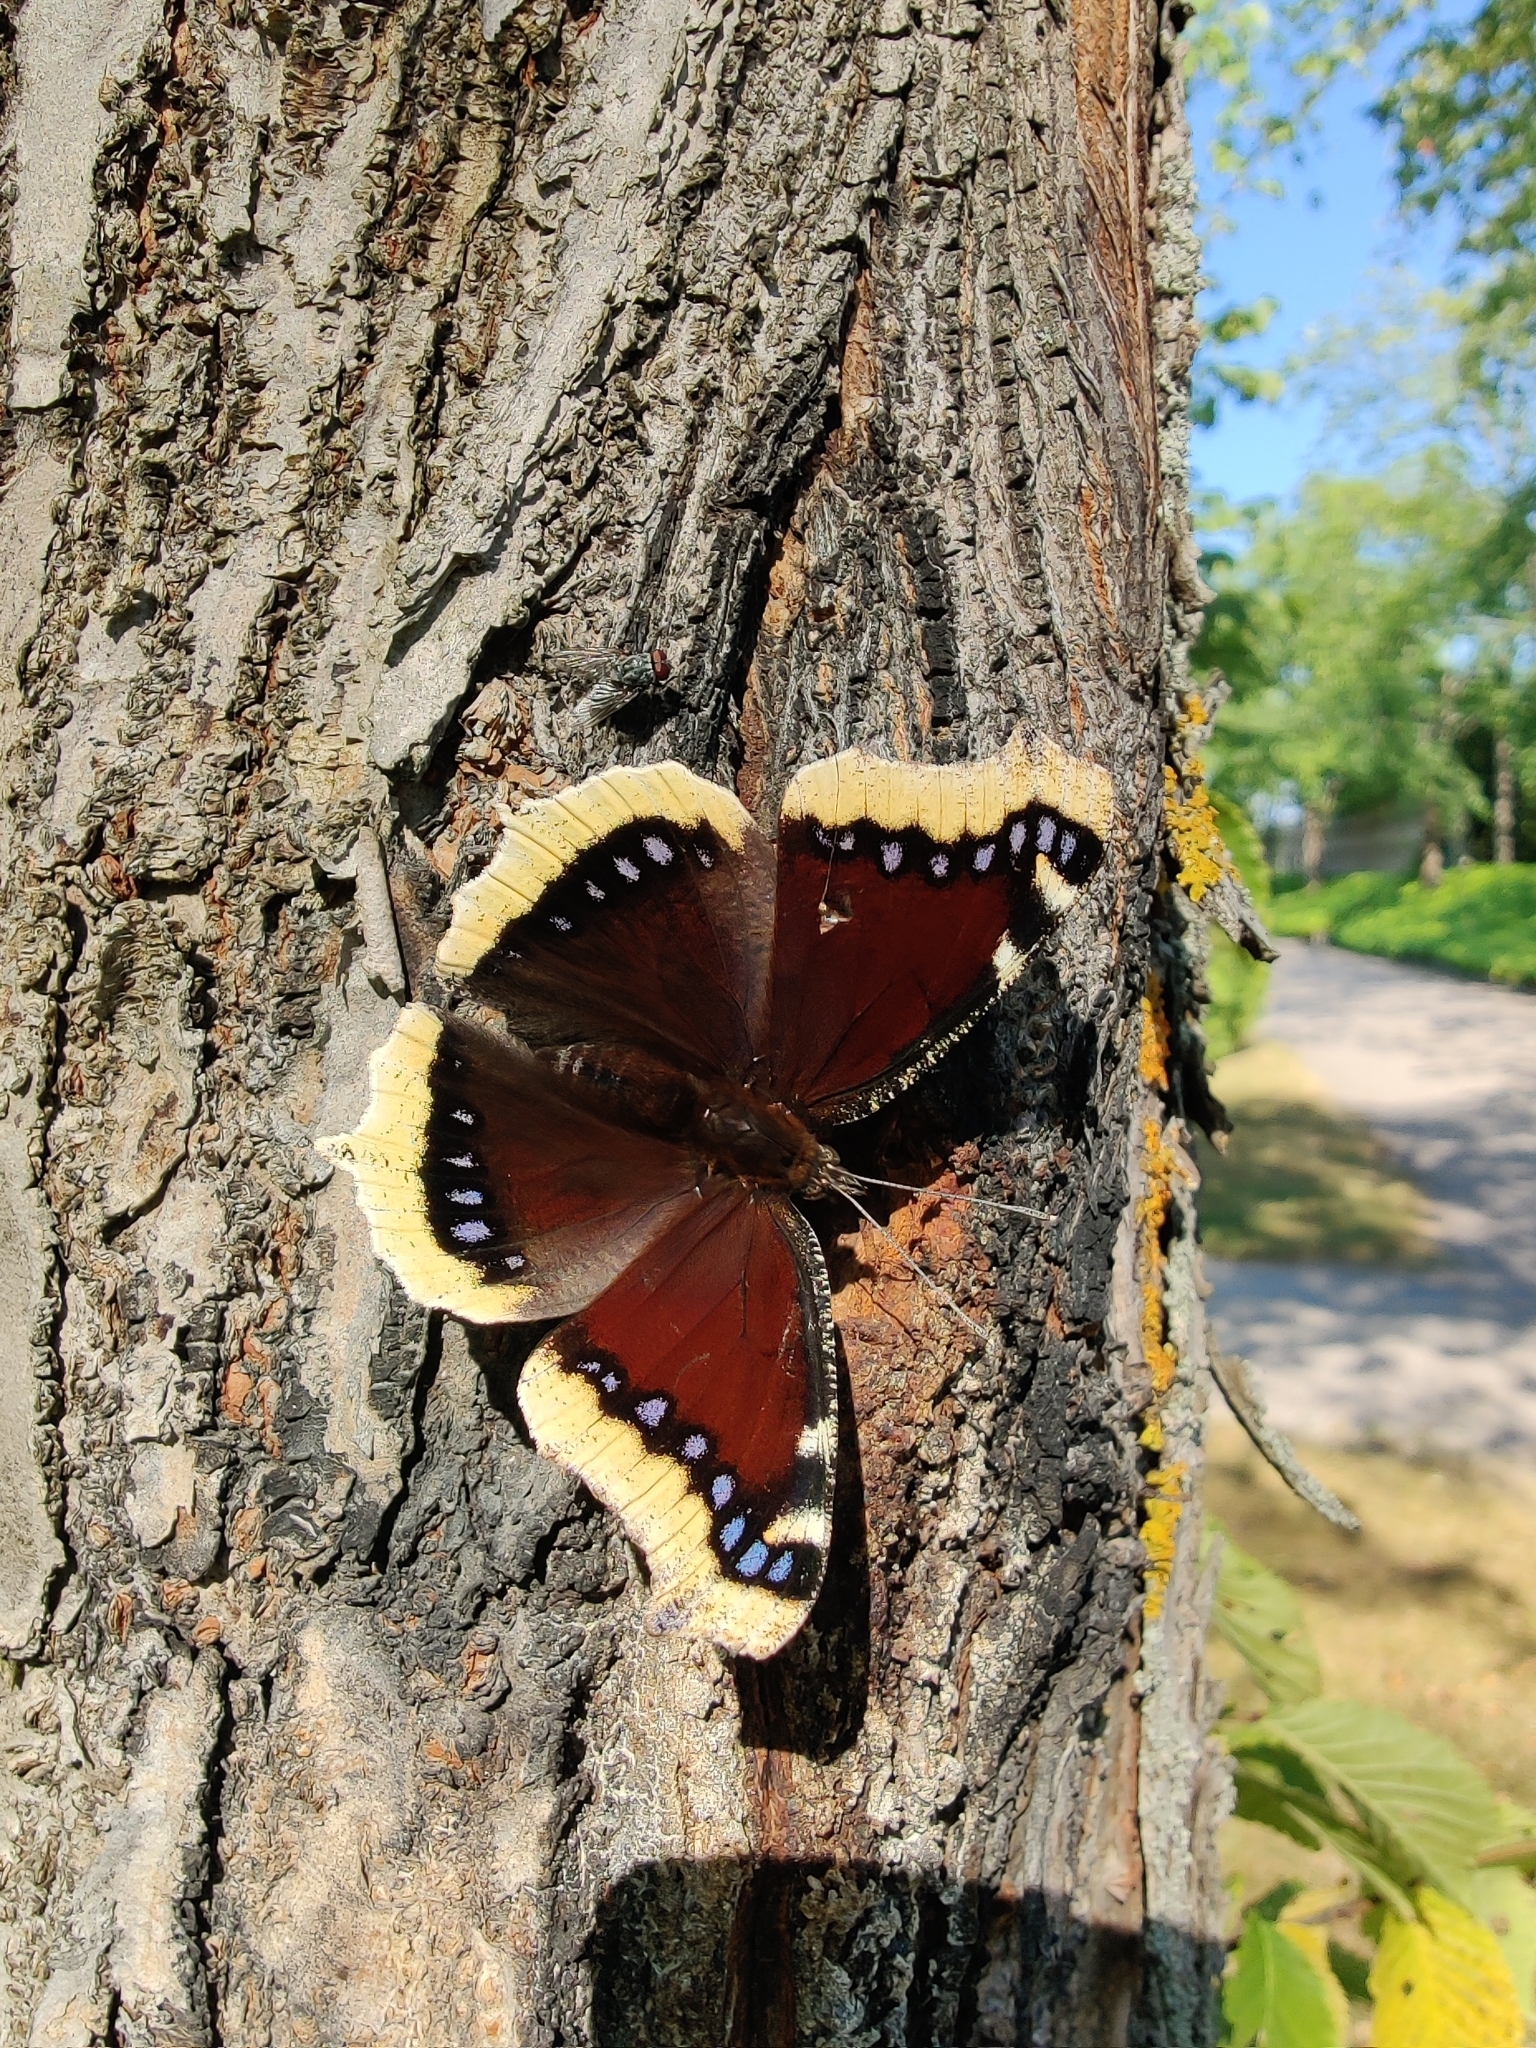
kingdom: Animalia
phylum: Arthropoda
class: Insecta
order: Lepidoptera
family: Nymphalidae
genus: Nymphalis
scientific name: Nymphalis antiopa
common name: Camberwell beauty
